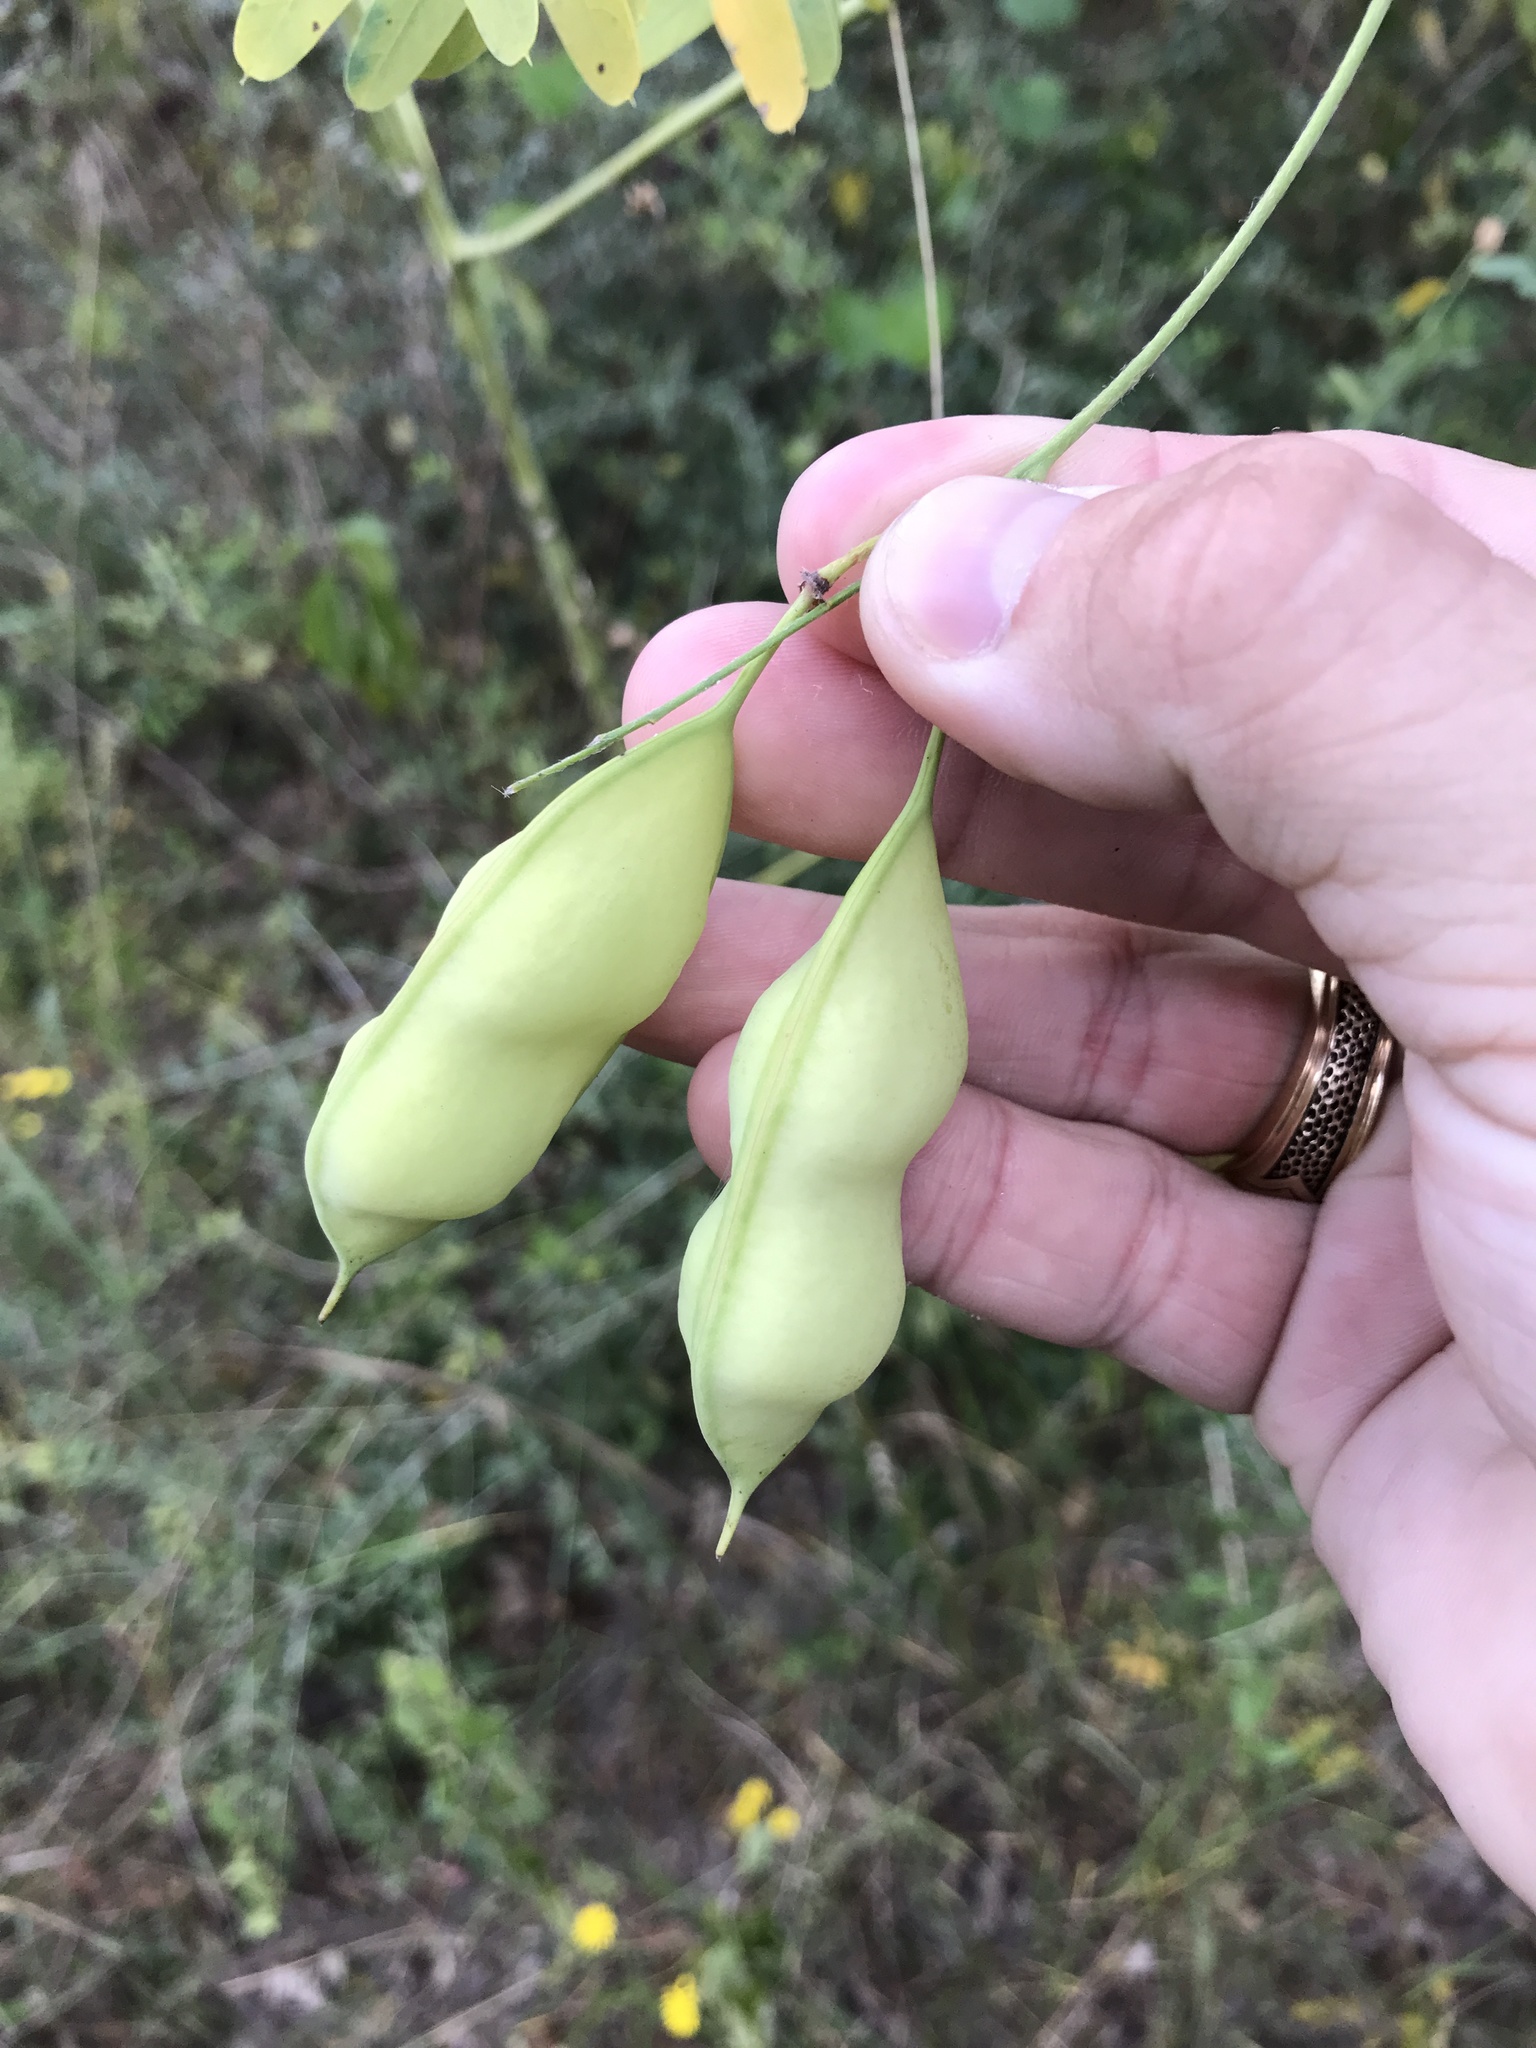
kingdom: Plantae
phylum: Tracheophyta
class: Magnoliopsida
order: Fabales
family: Fabaceae
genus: Sesbania
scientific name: Sesbania vesicaria
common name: Bagpod
